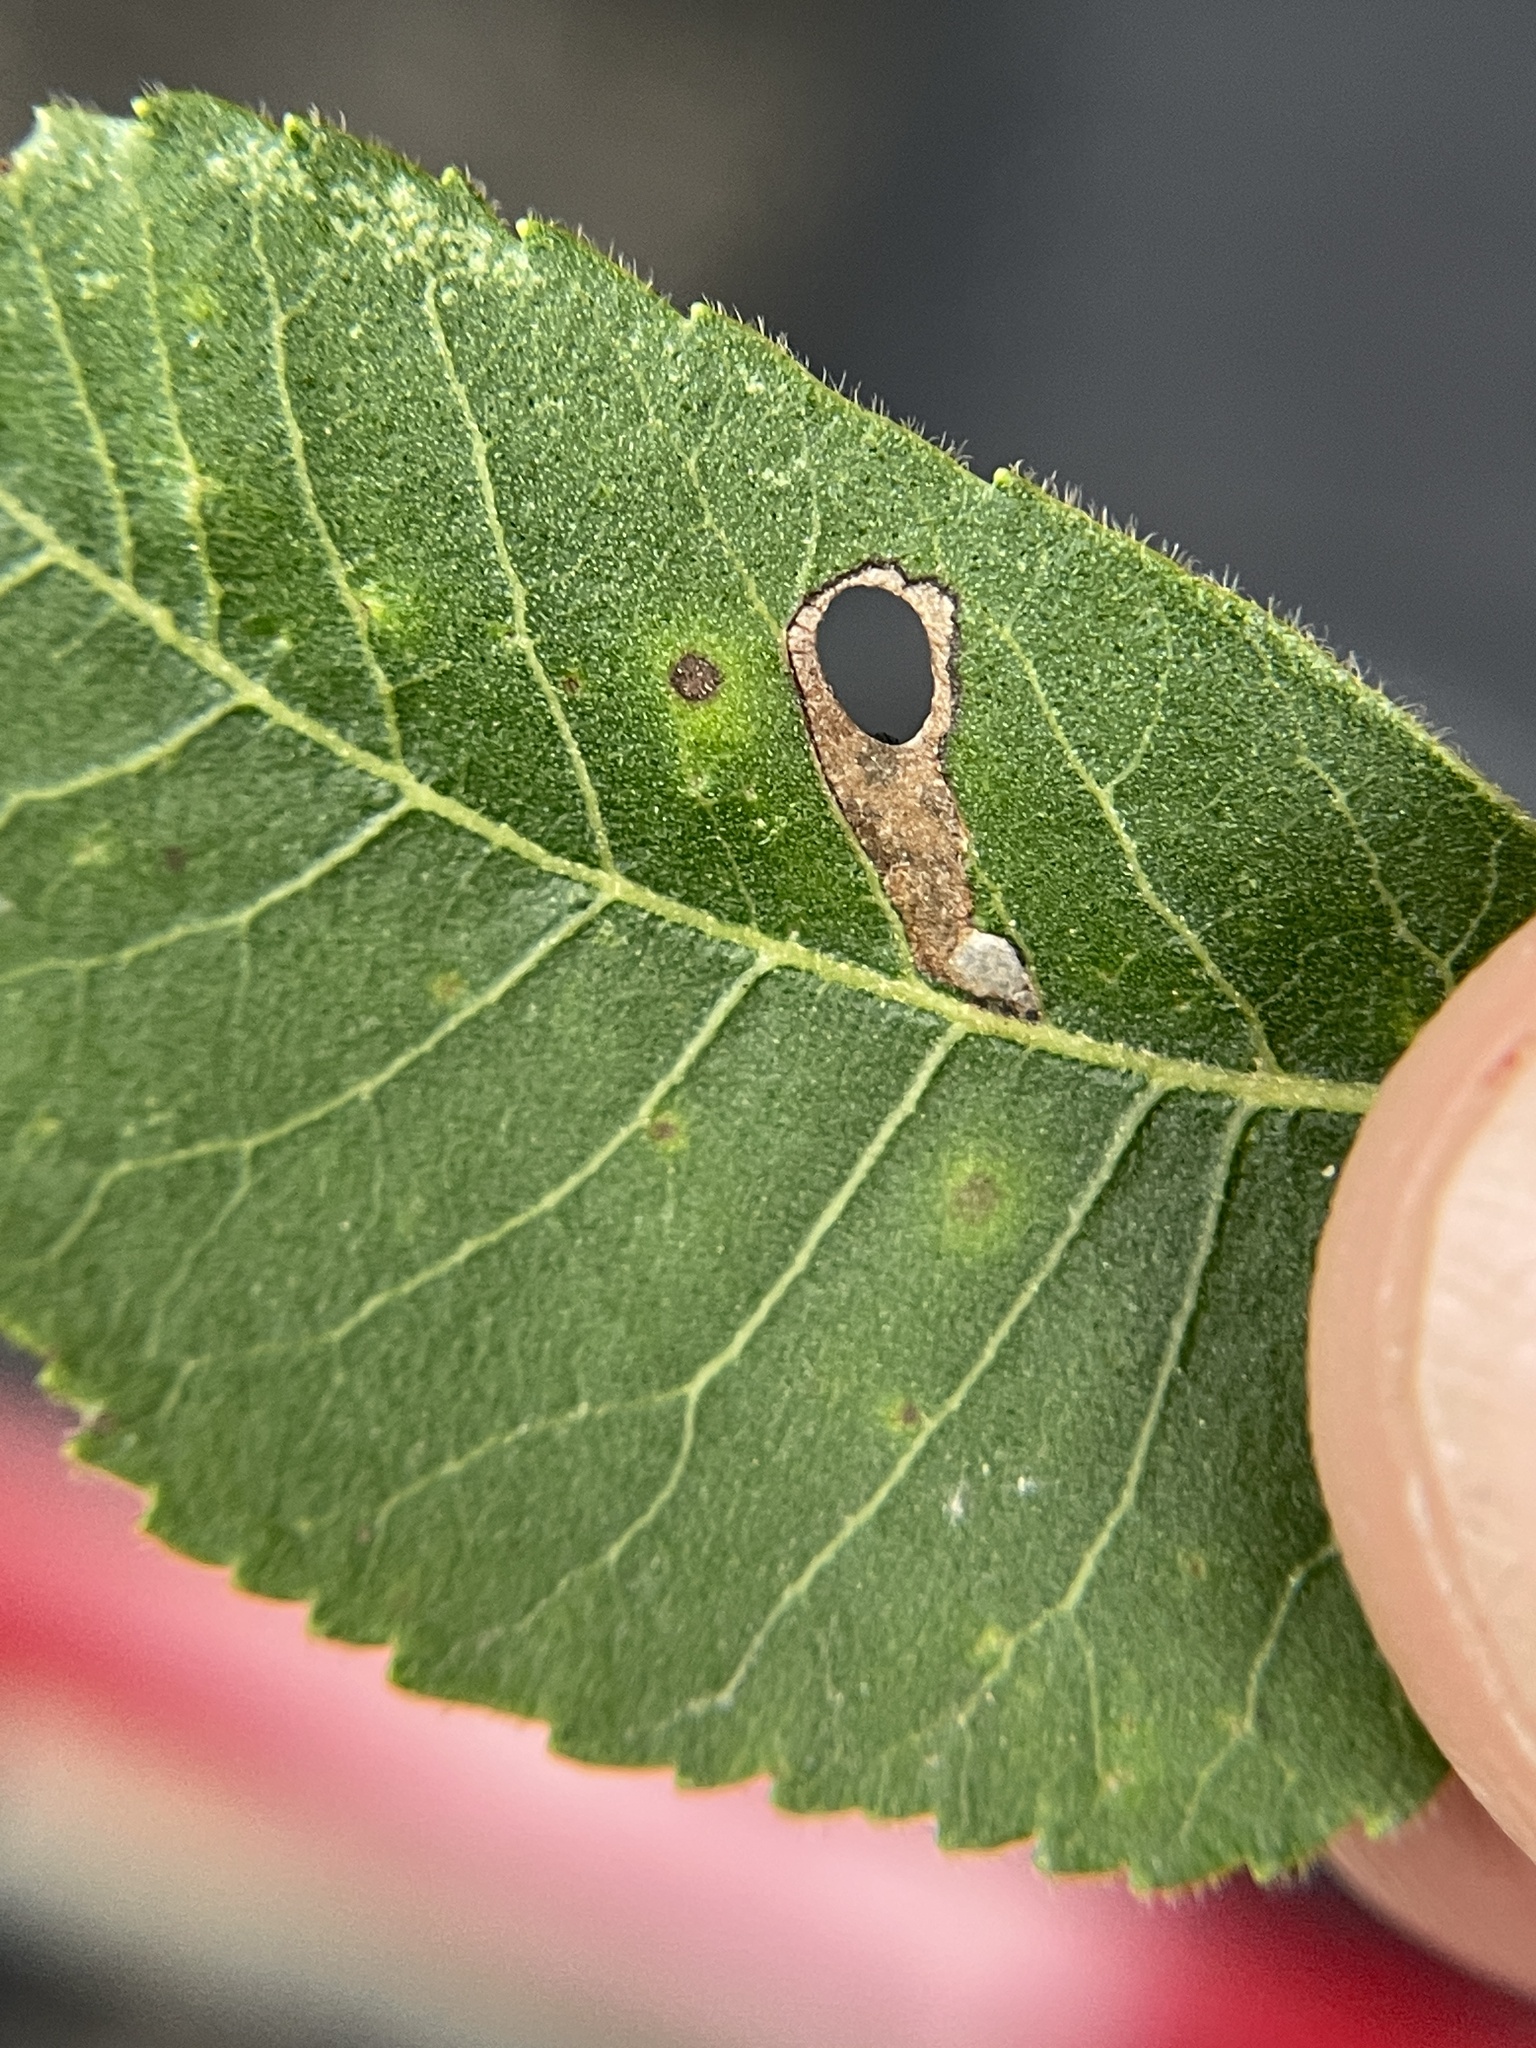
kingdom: Animalia
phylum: Arthropoda
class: Insecta
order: Lepidoptera
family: Heliozelidae
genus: Coptodisca
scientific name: Coptodisca lucifluella
